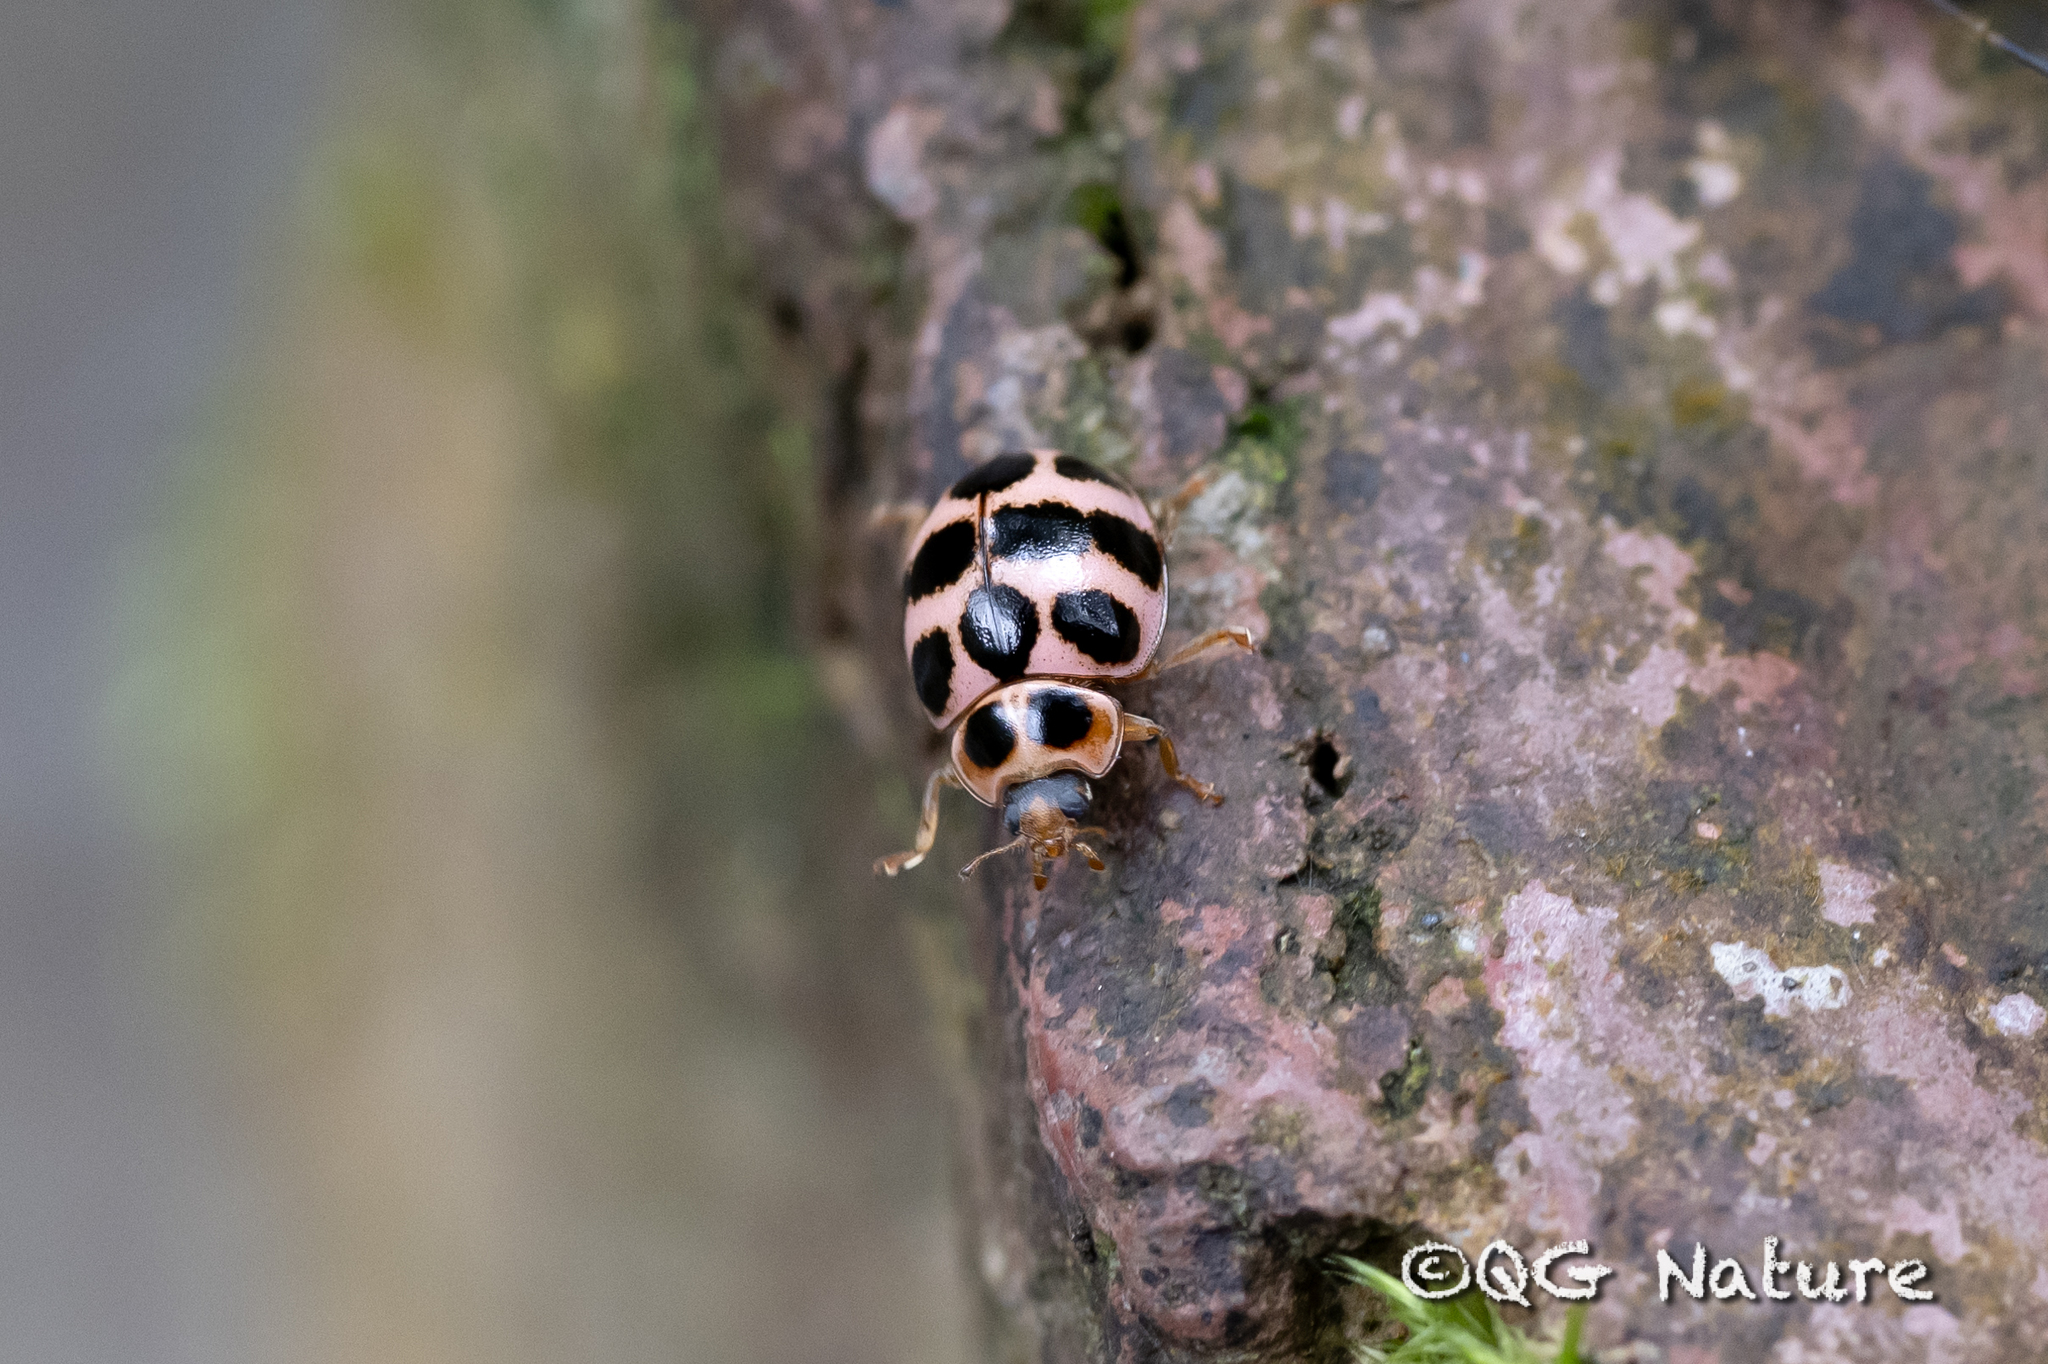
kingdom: Animalia
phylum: Arthropoda
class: Insecta
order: Coleoptera
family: Coccinellidae
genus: Calvia
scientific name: Calvia quatuordecimguttata
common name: Cream-spot ladybird
